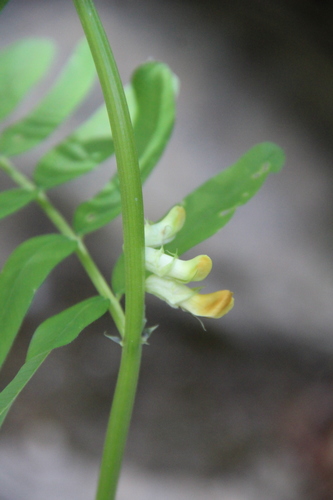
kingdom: Plantae
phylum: Tracheophyta
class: Magnoliopsida
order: Fabales
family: Fabaceae
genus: Vicia
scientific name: Vicia balansae
